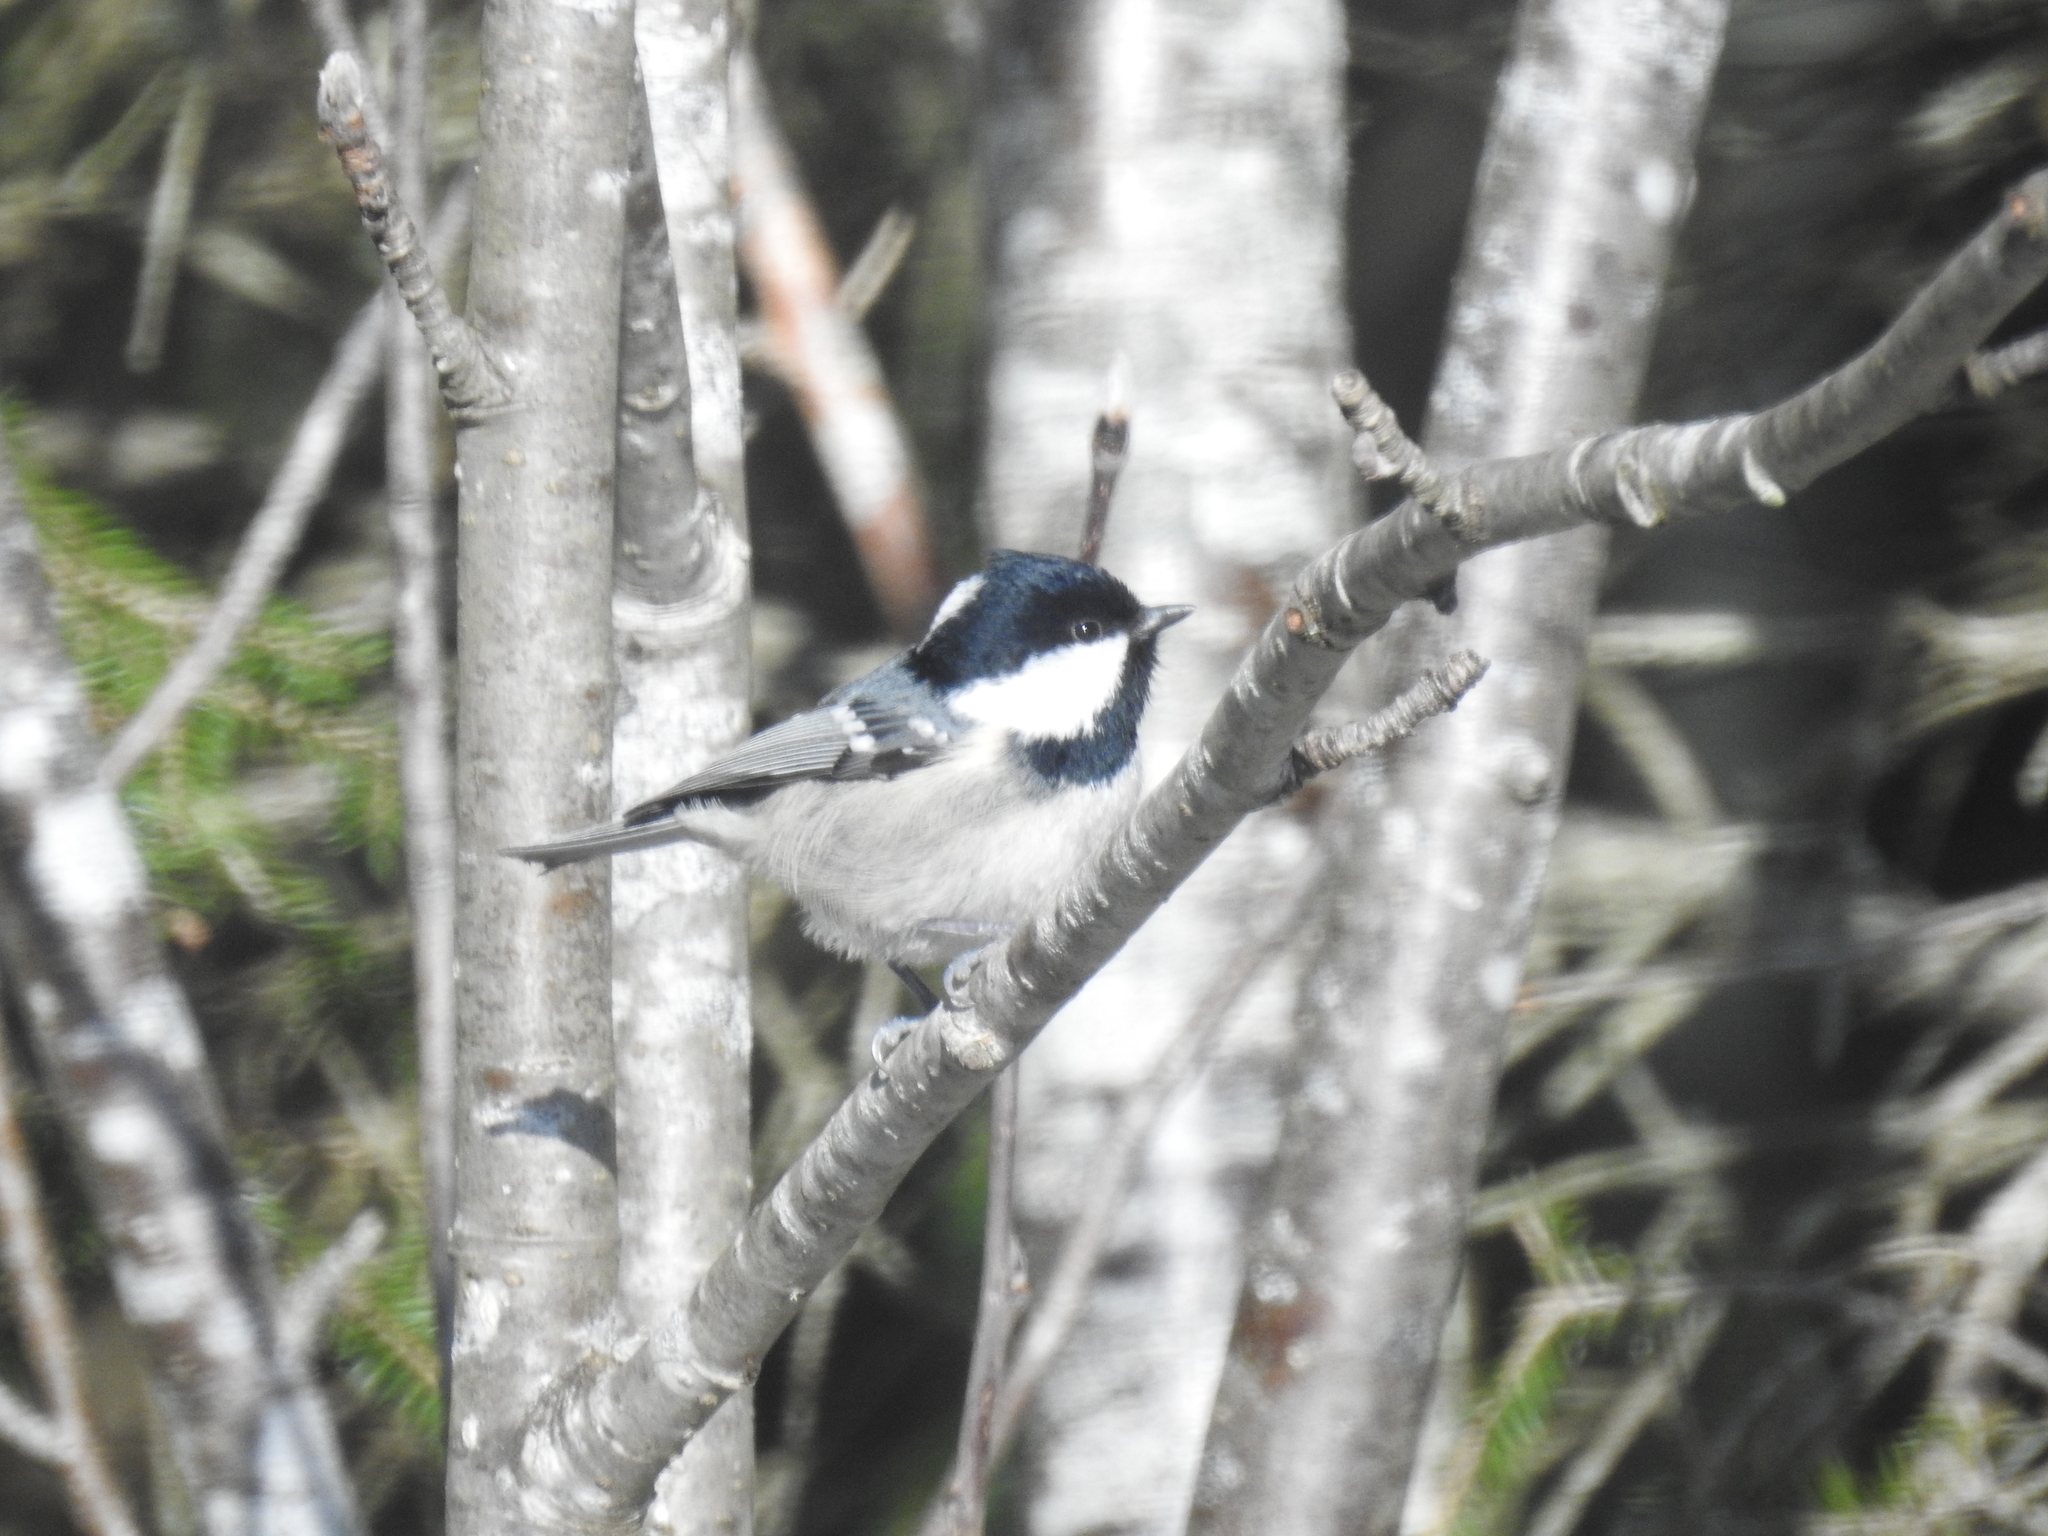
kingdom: Animalia
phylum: Chordata
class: Aves
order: Passeriformes
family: Paridae
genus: Periparus
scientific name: Periparus ater
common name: Coal tit
